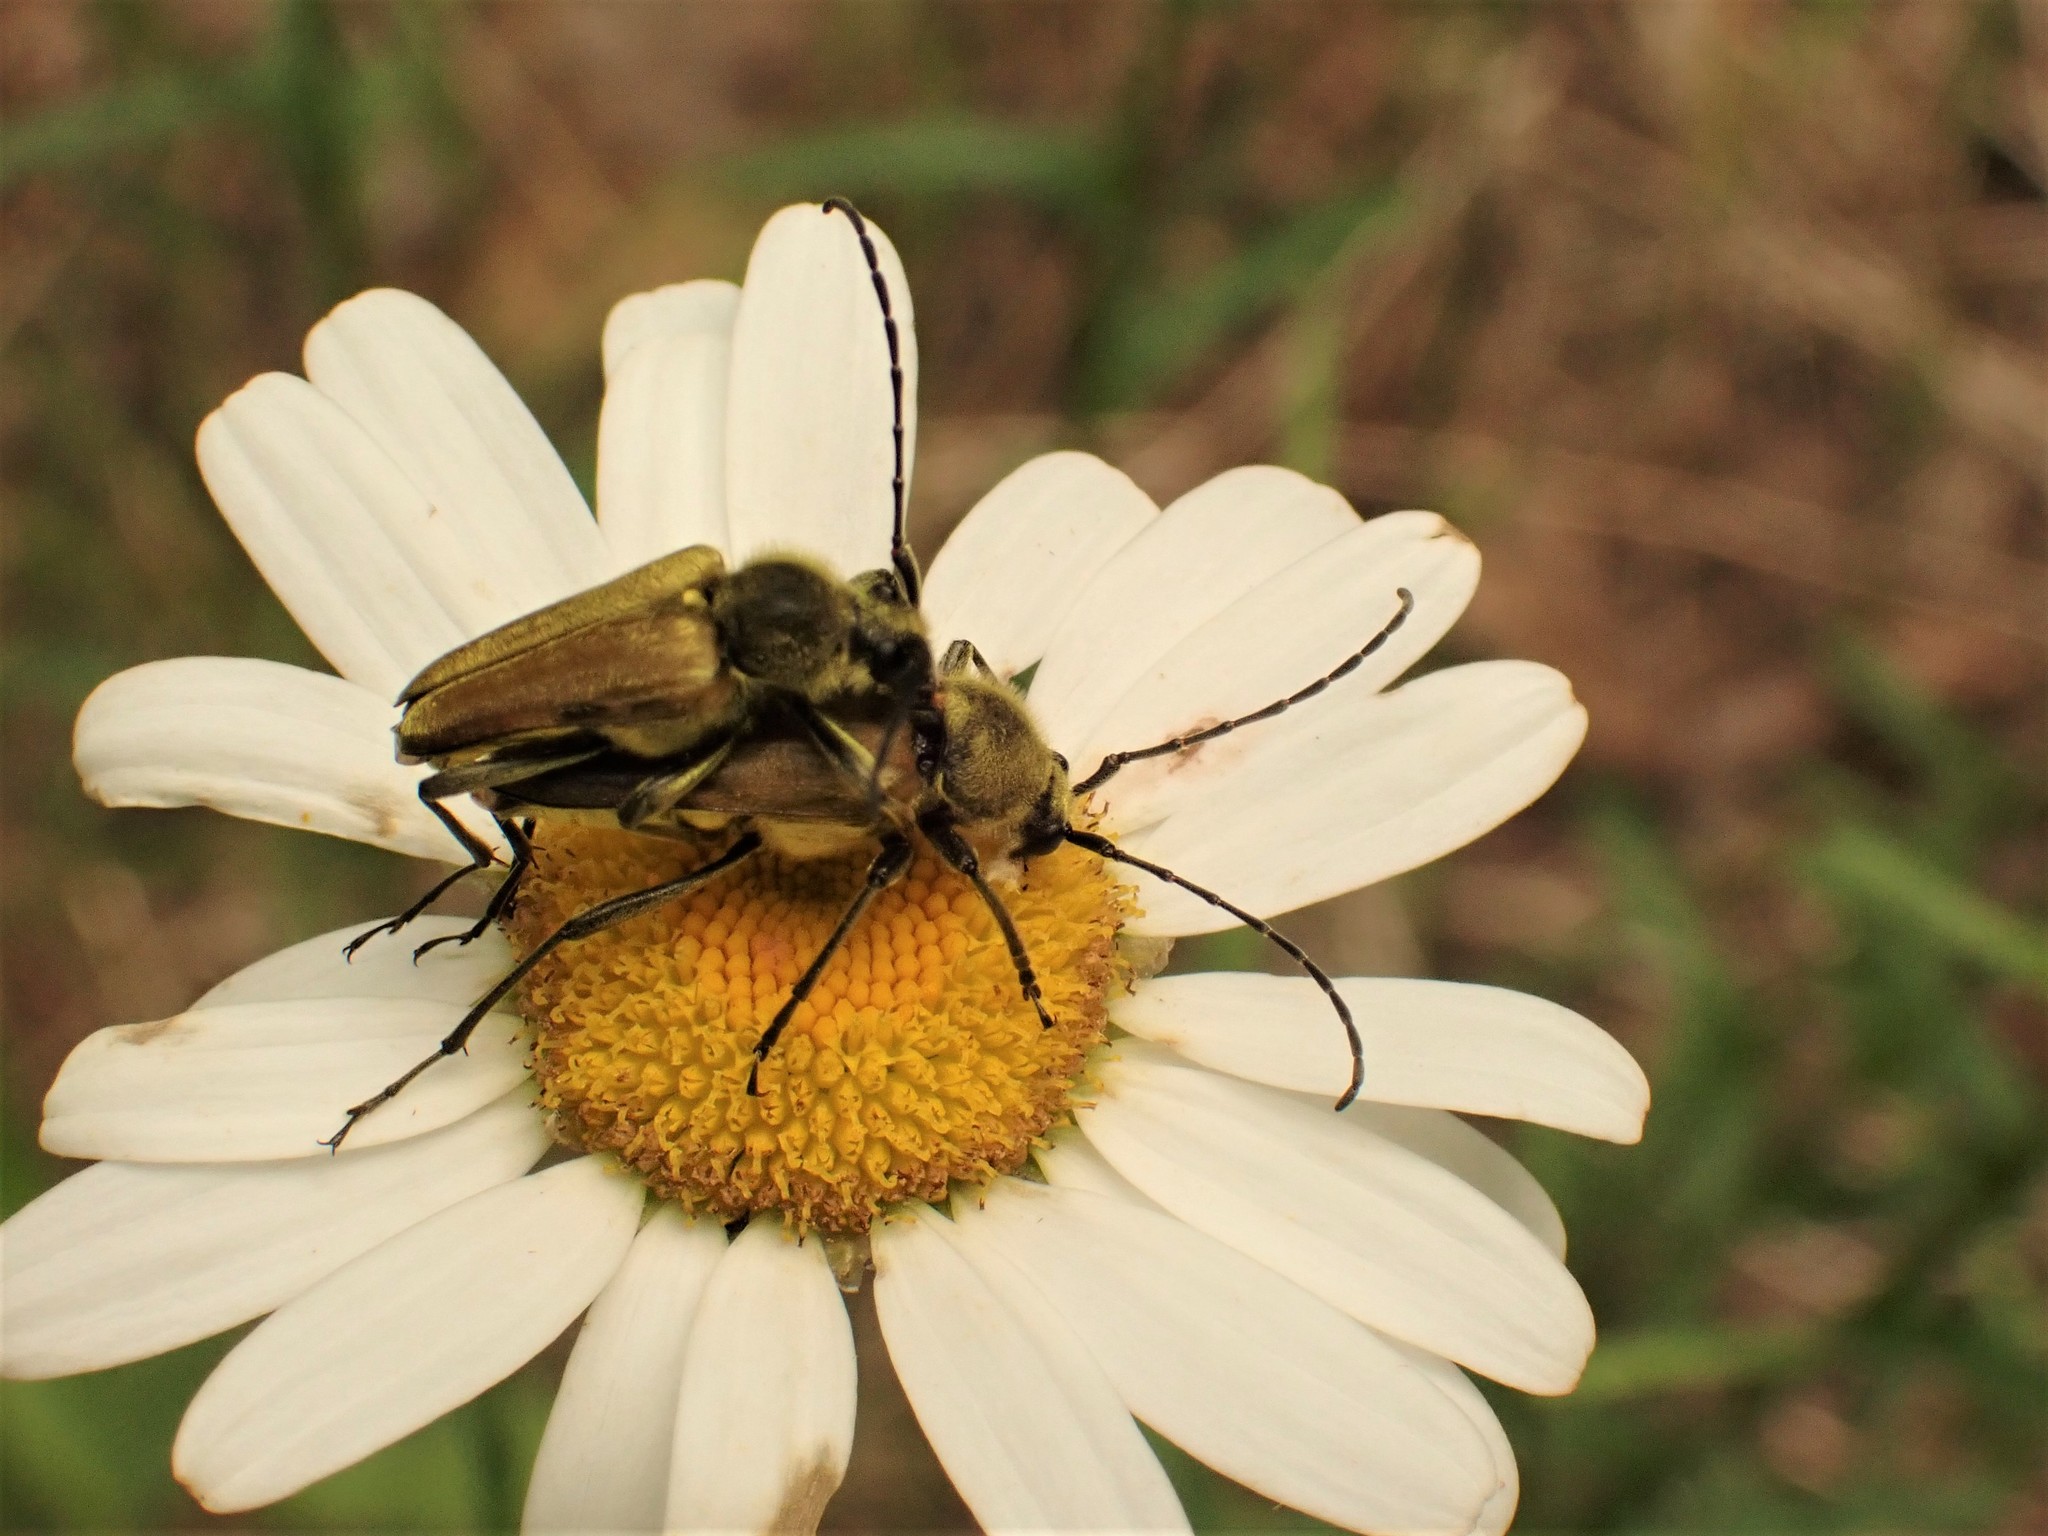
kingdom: Animalia
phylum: Arthropoda
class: Insecta
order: Coleoptera
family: Cerambycidae
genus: Cosmosalia
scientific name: Cosmosalia chrysocoma
